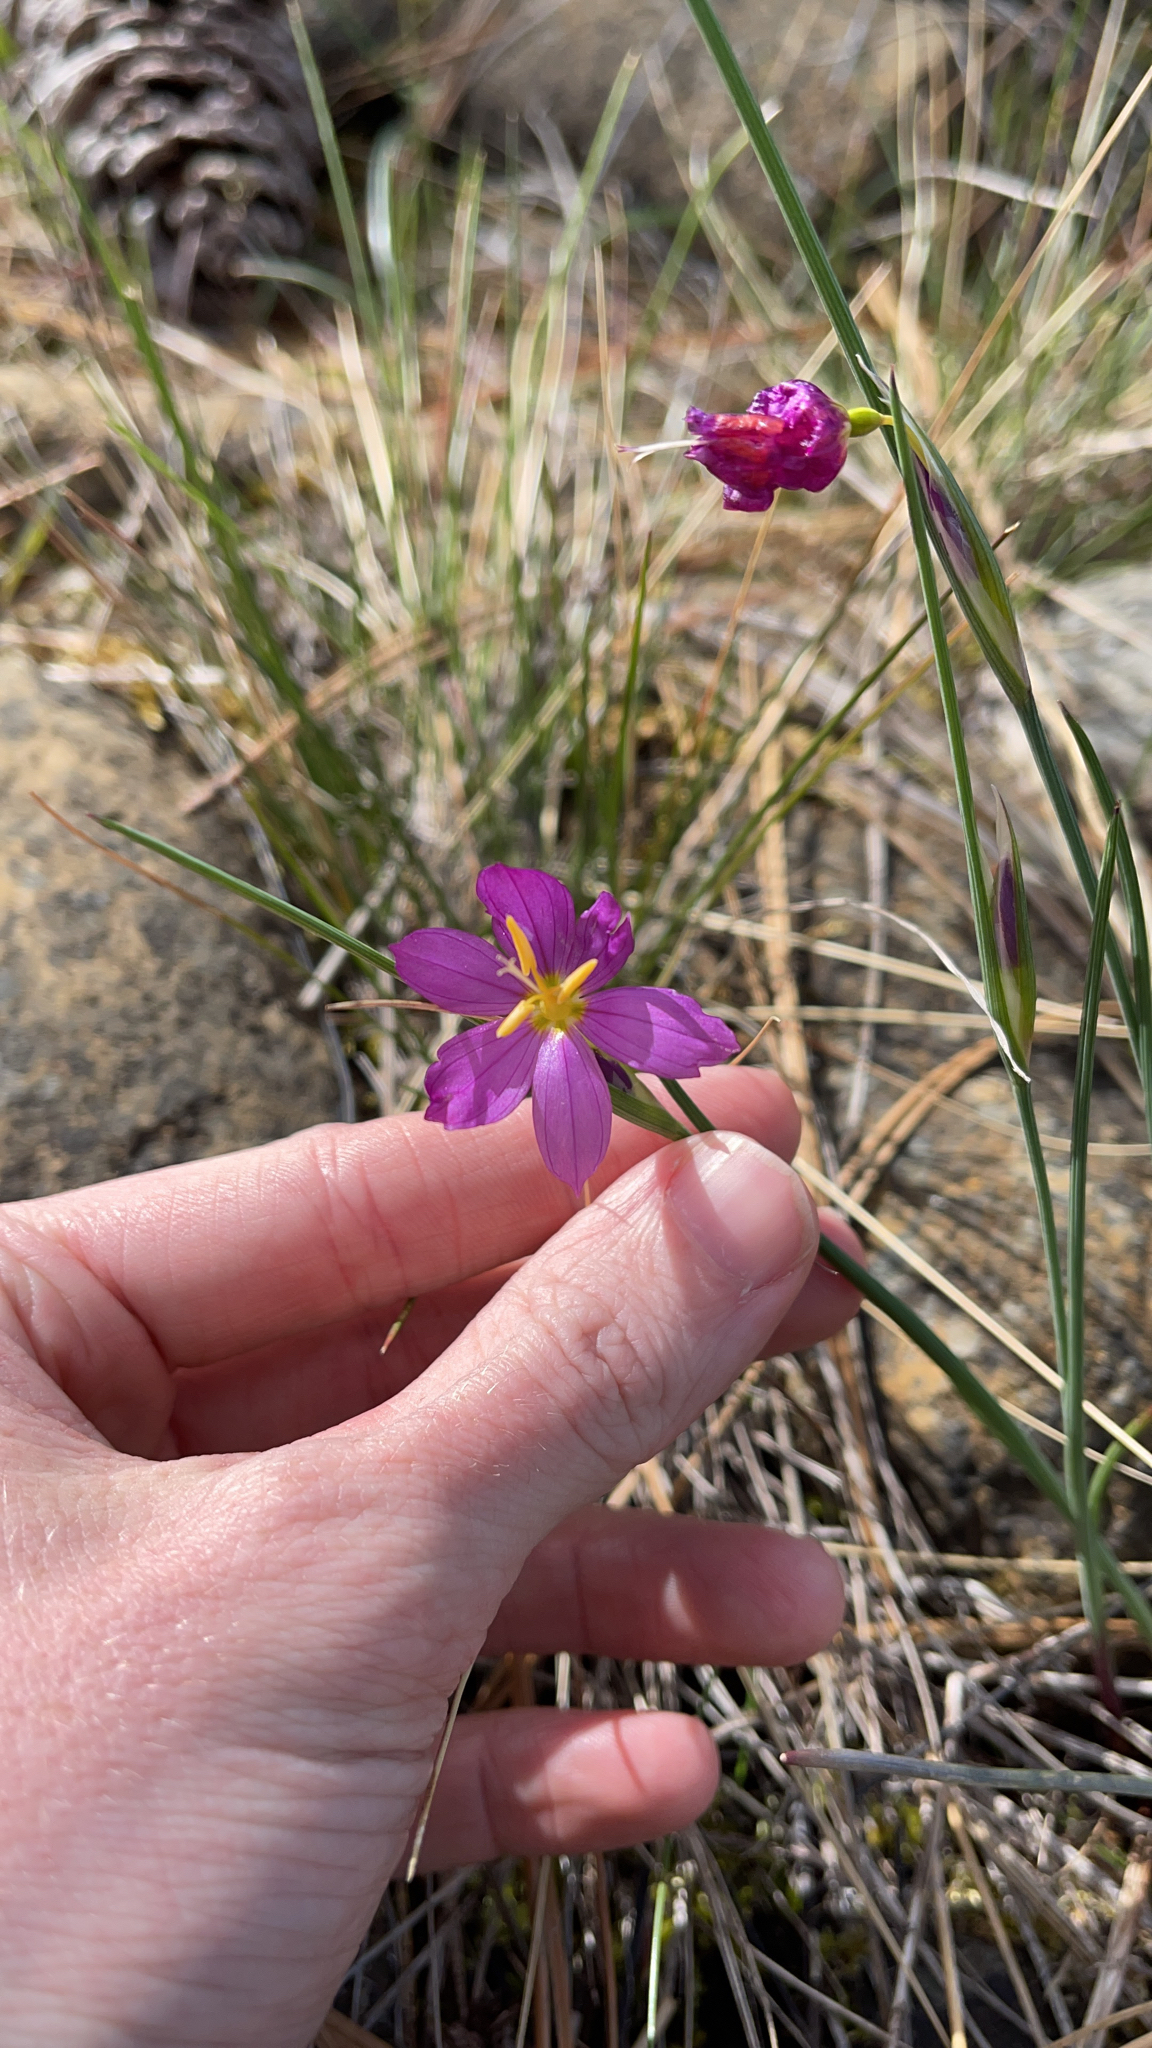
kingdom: Plantae
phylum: Tracheophyta
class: Liliopsida
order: Asparagales
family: Iridaceae
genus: Olsynium
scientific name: Olsynium douglasii
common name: Douglas' grasswidow
